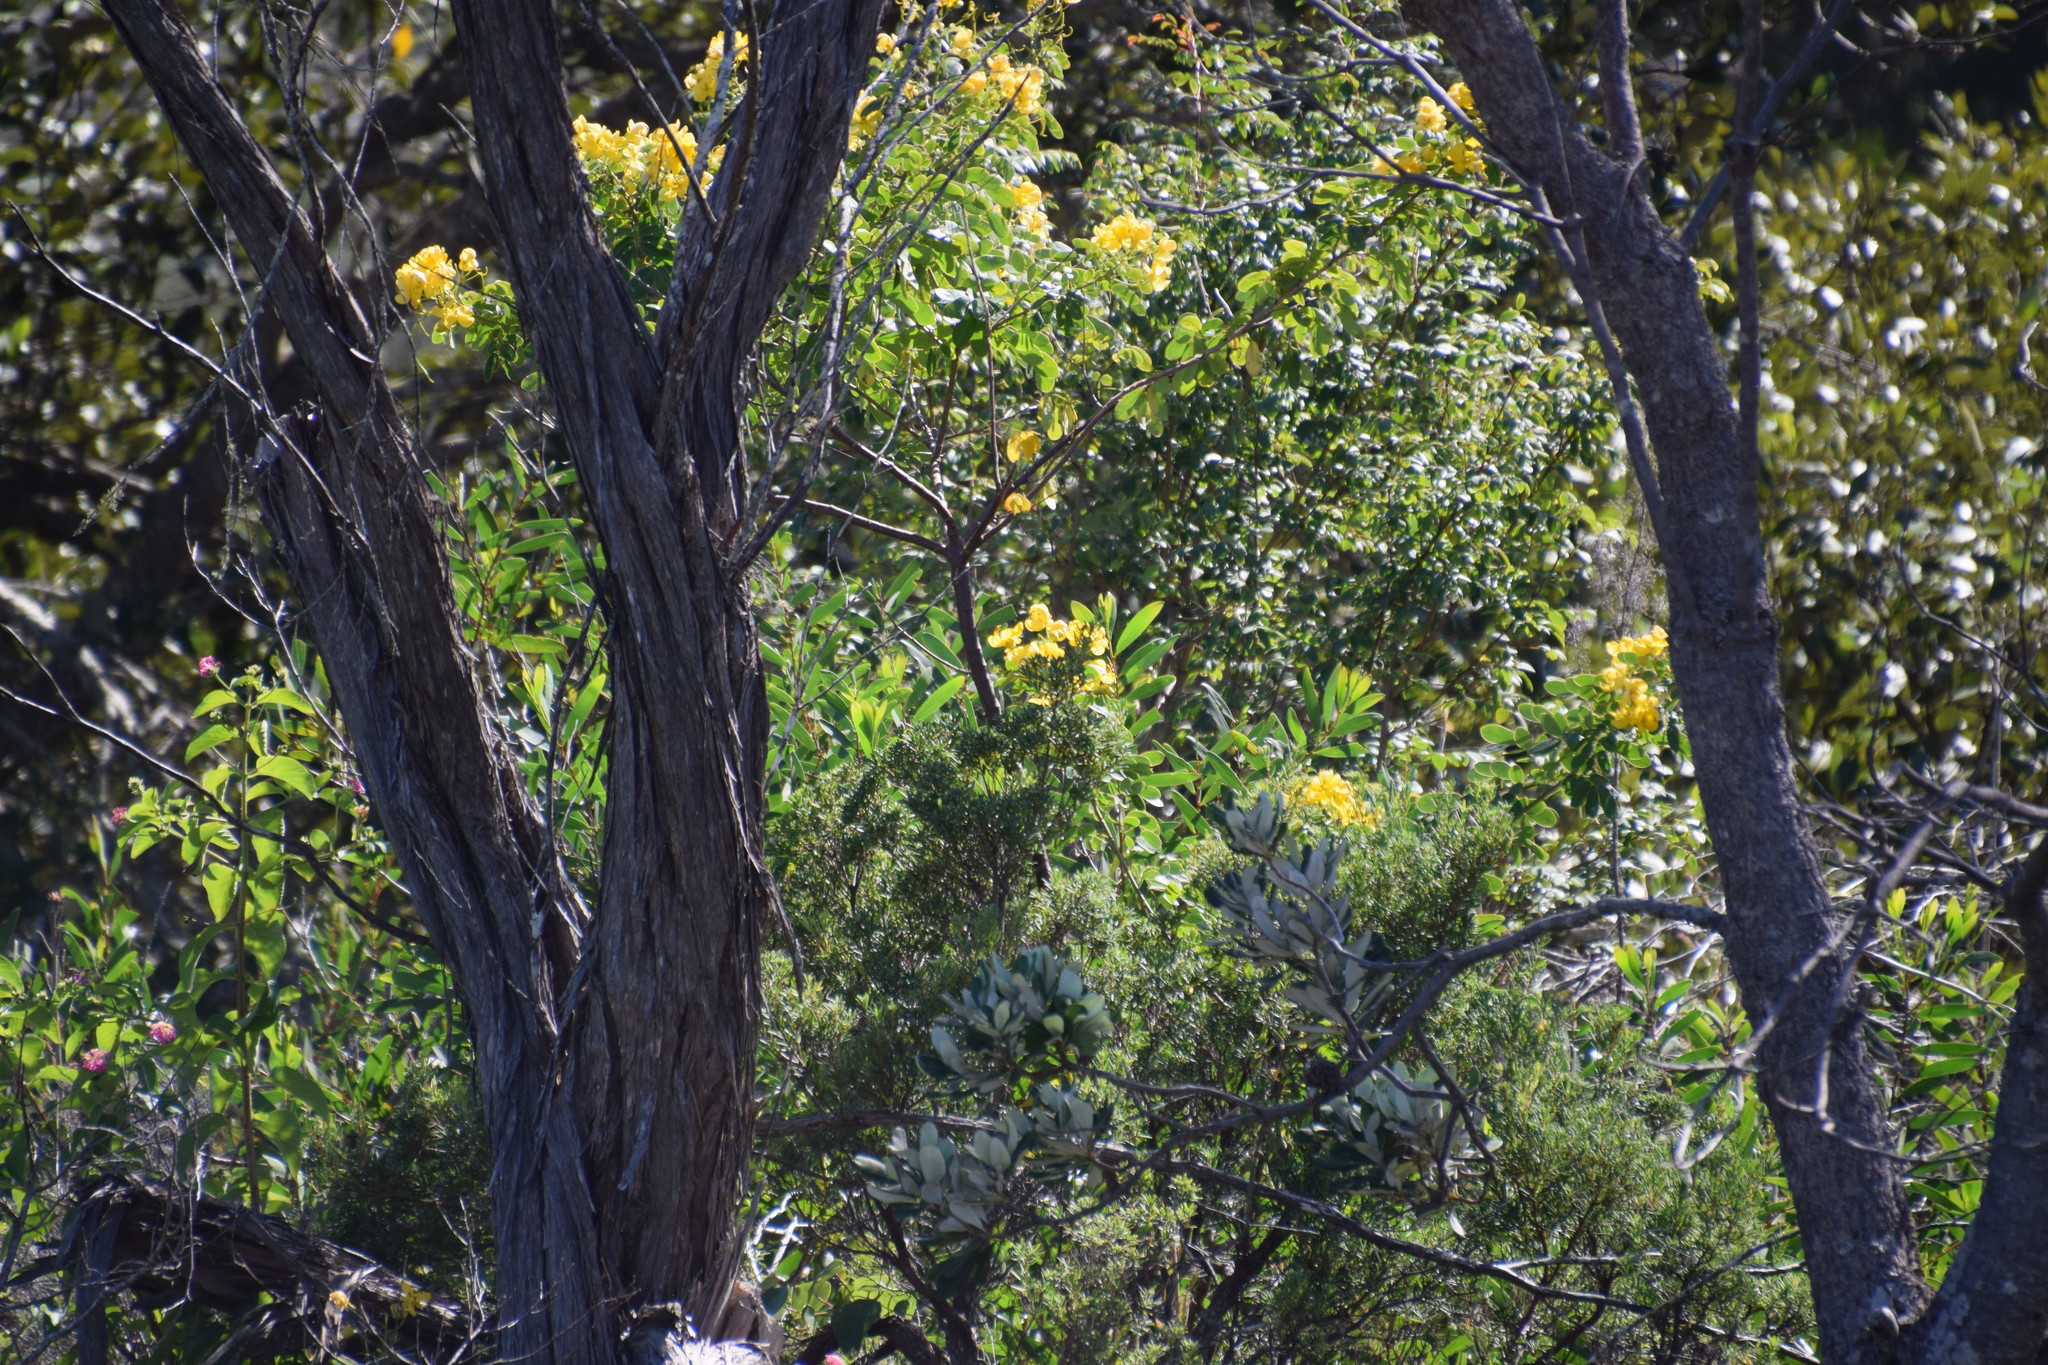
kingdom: Plantae
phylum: Tracheophyta
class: Magnoliopsida
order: Fabales
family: Fabaceae
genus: Senna
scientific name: Senna pendula
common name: Easter cassia
